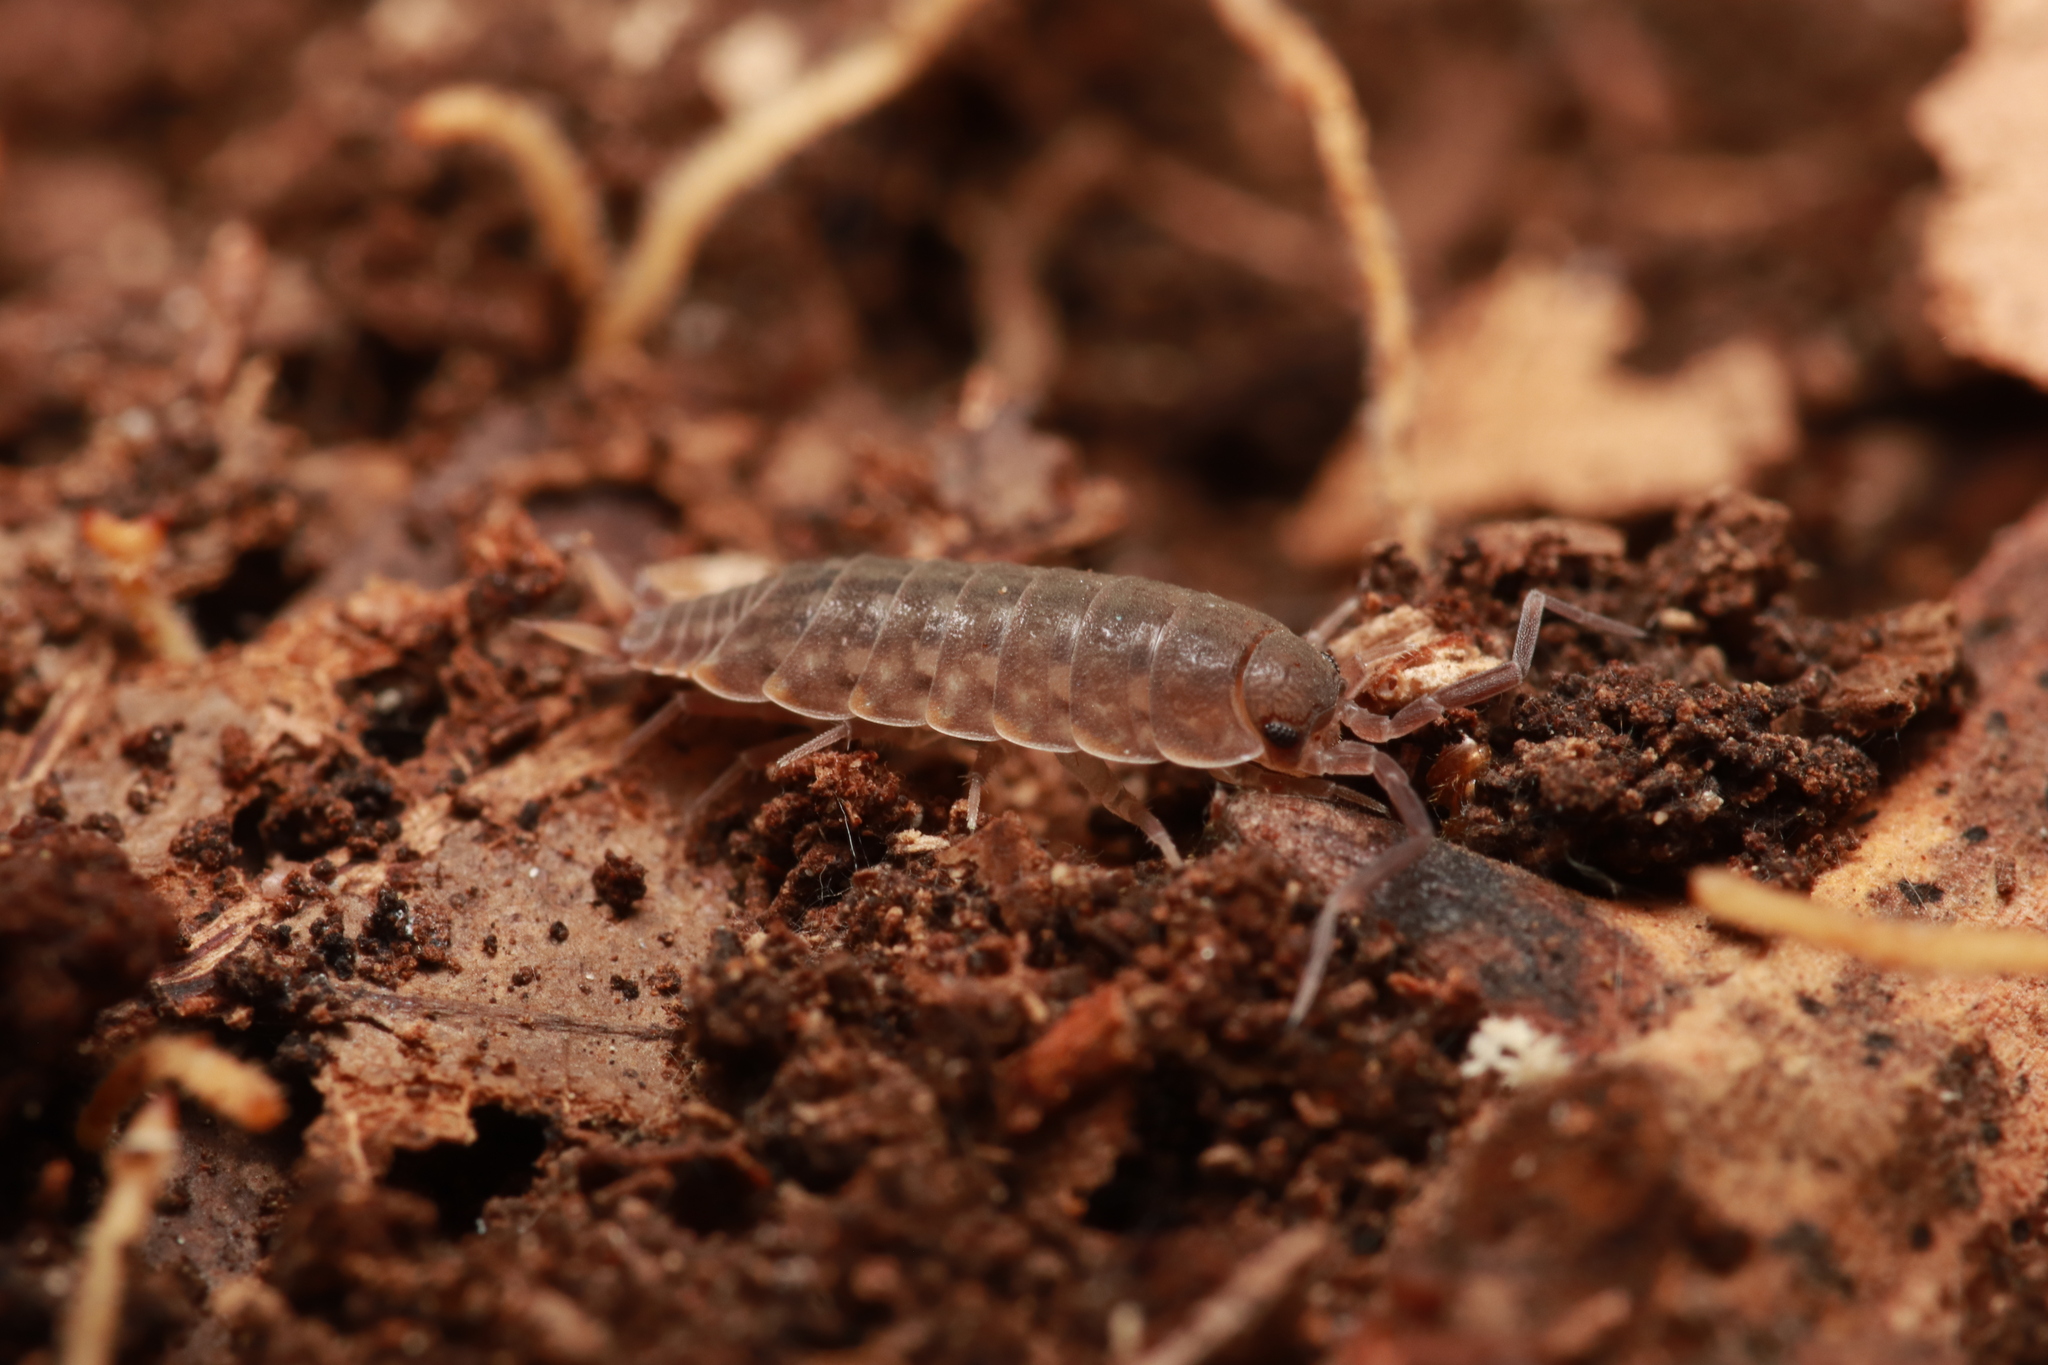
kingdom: Animalia
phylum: Arthropoda
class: Malacostraca
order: Isopoda
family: Agnaridae
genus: Orthometopon
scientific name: Orthometopon planum
